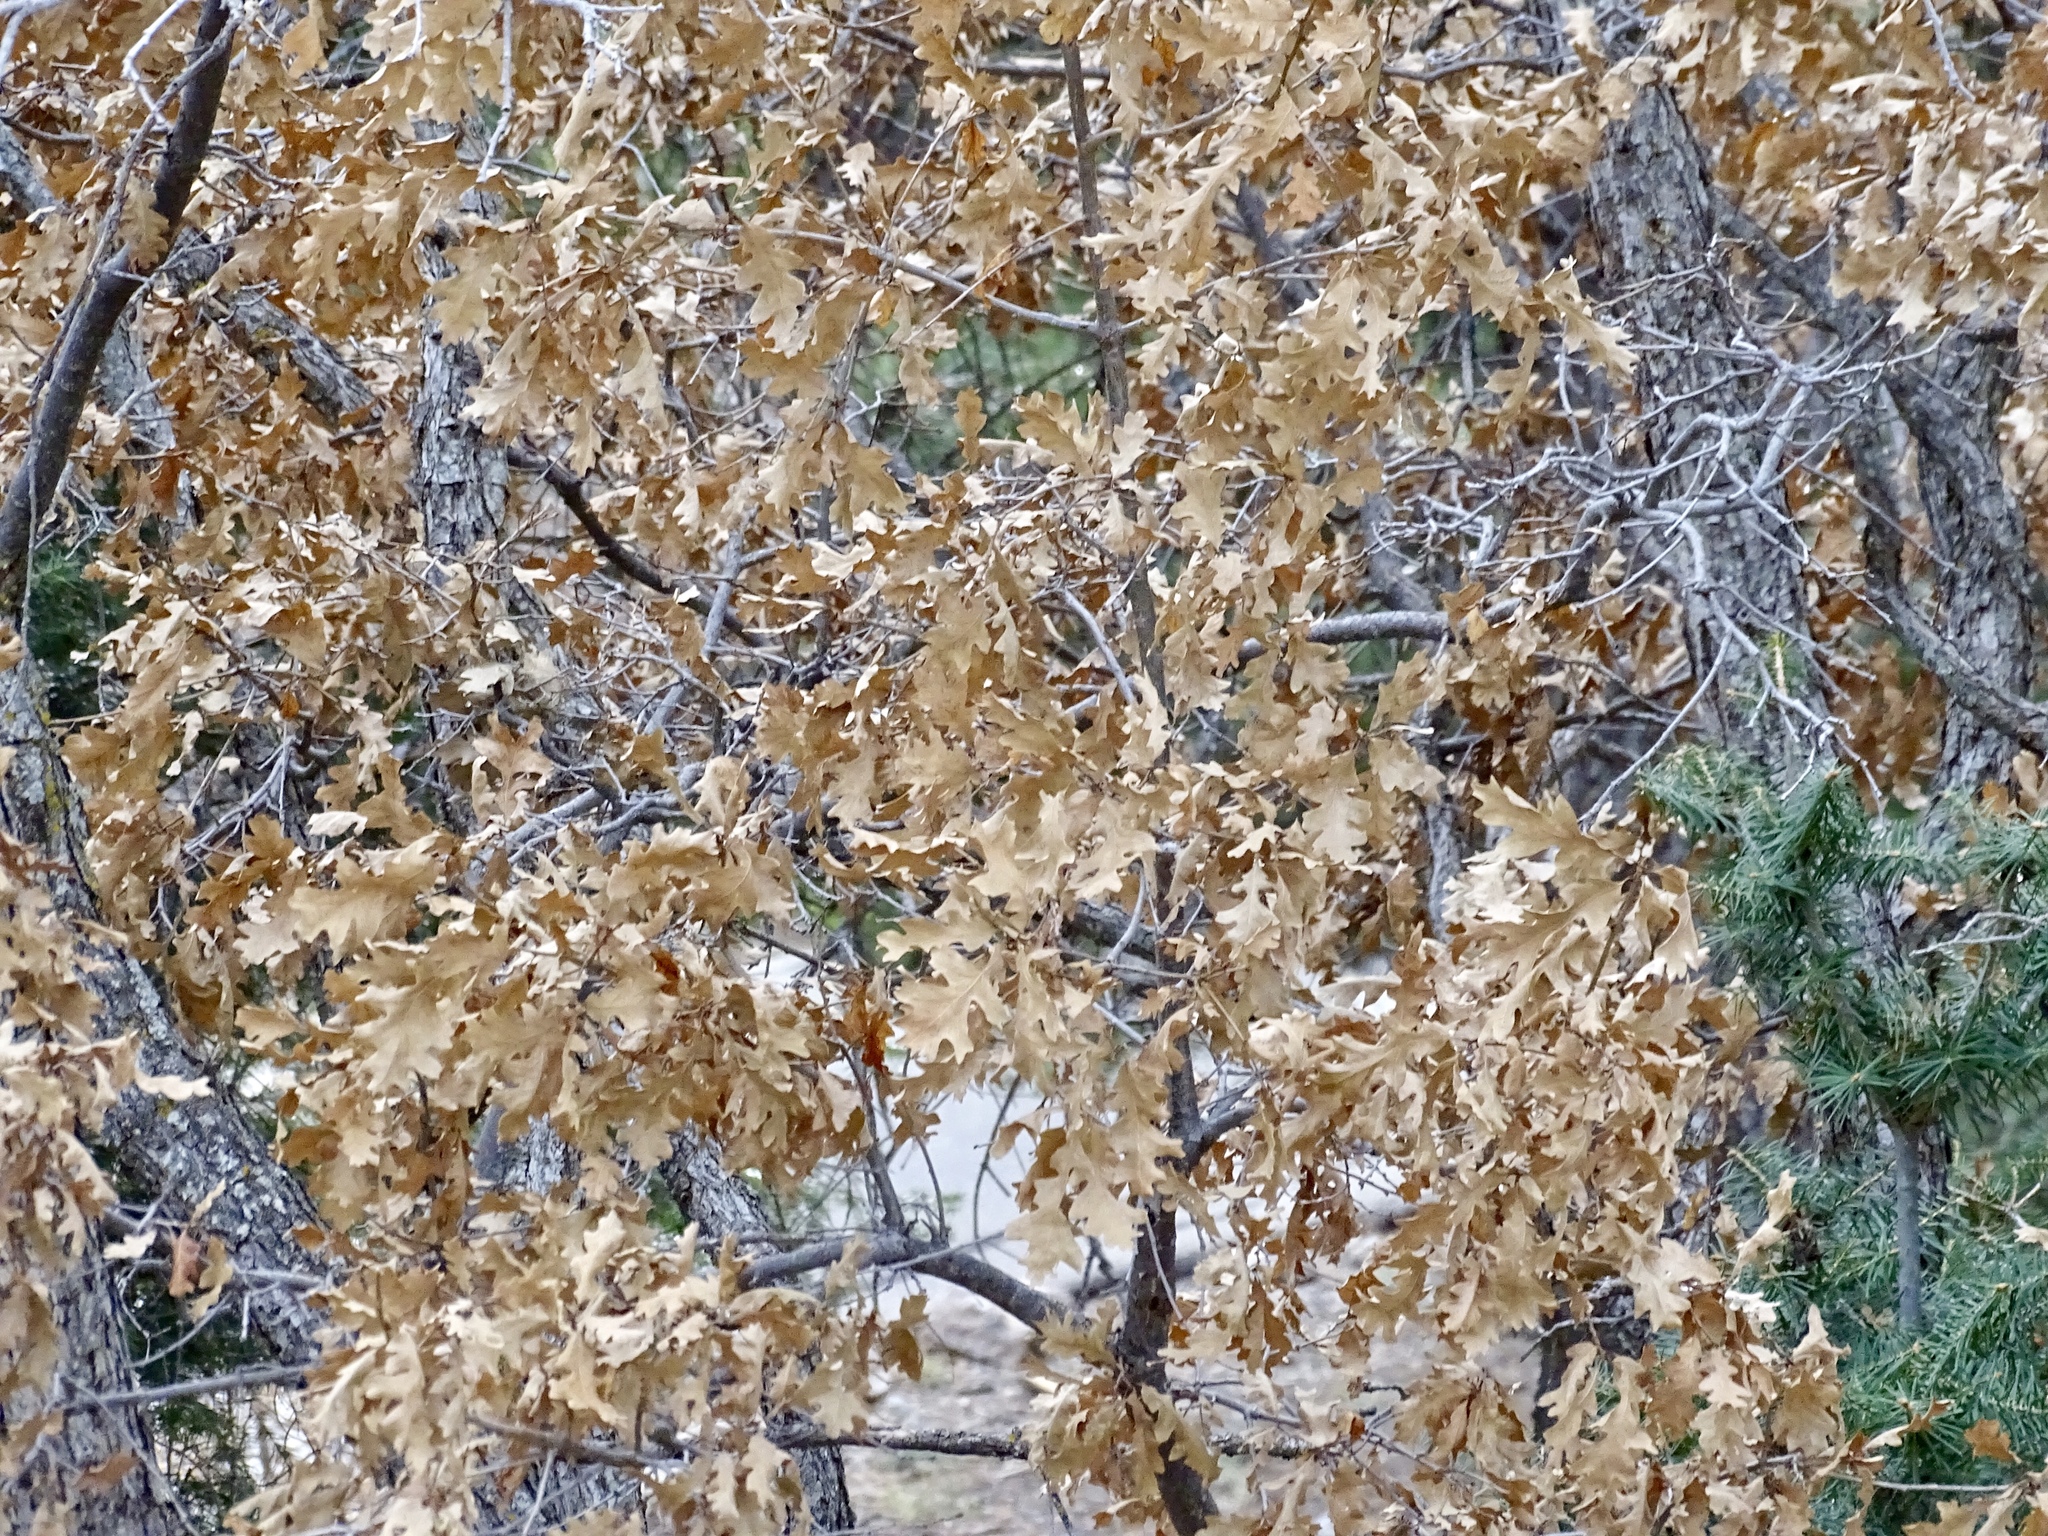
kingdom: Plantae
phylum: Tracheophyta
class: Magnoliopsida
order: Fagales
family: Fagaceae
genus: Quercus
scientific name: Quercus gambelii
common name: Gambel oak
